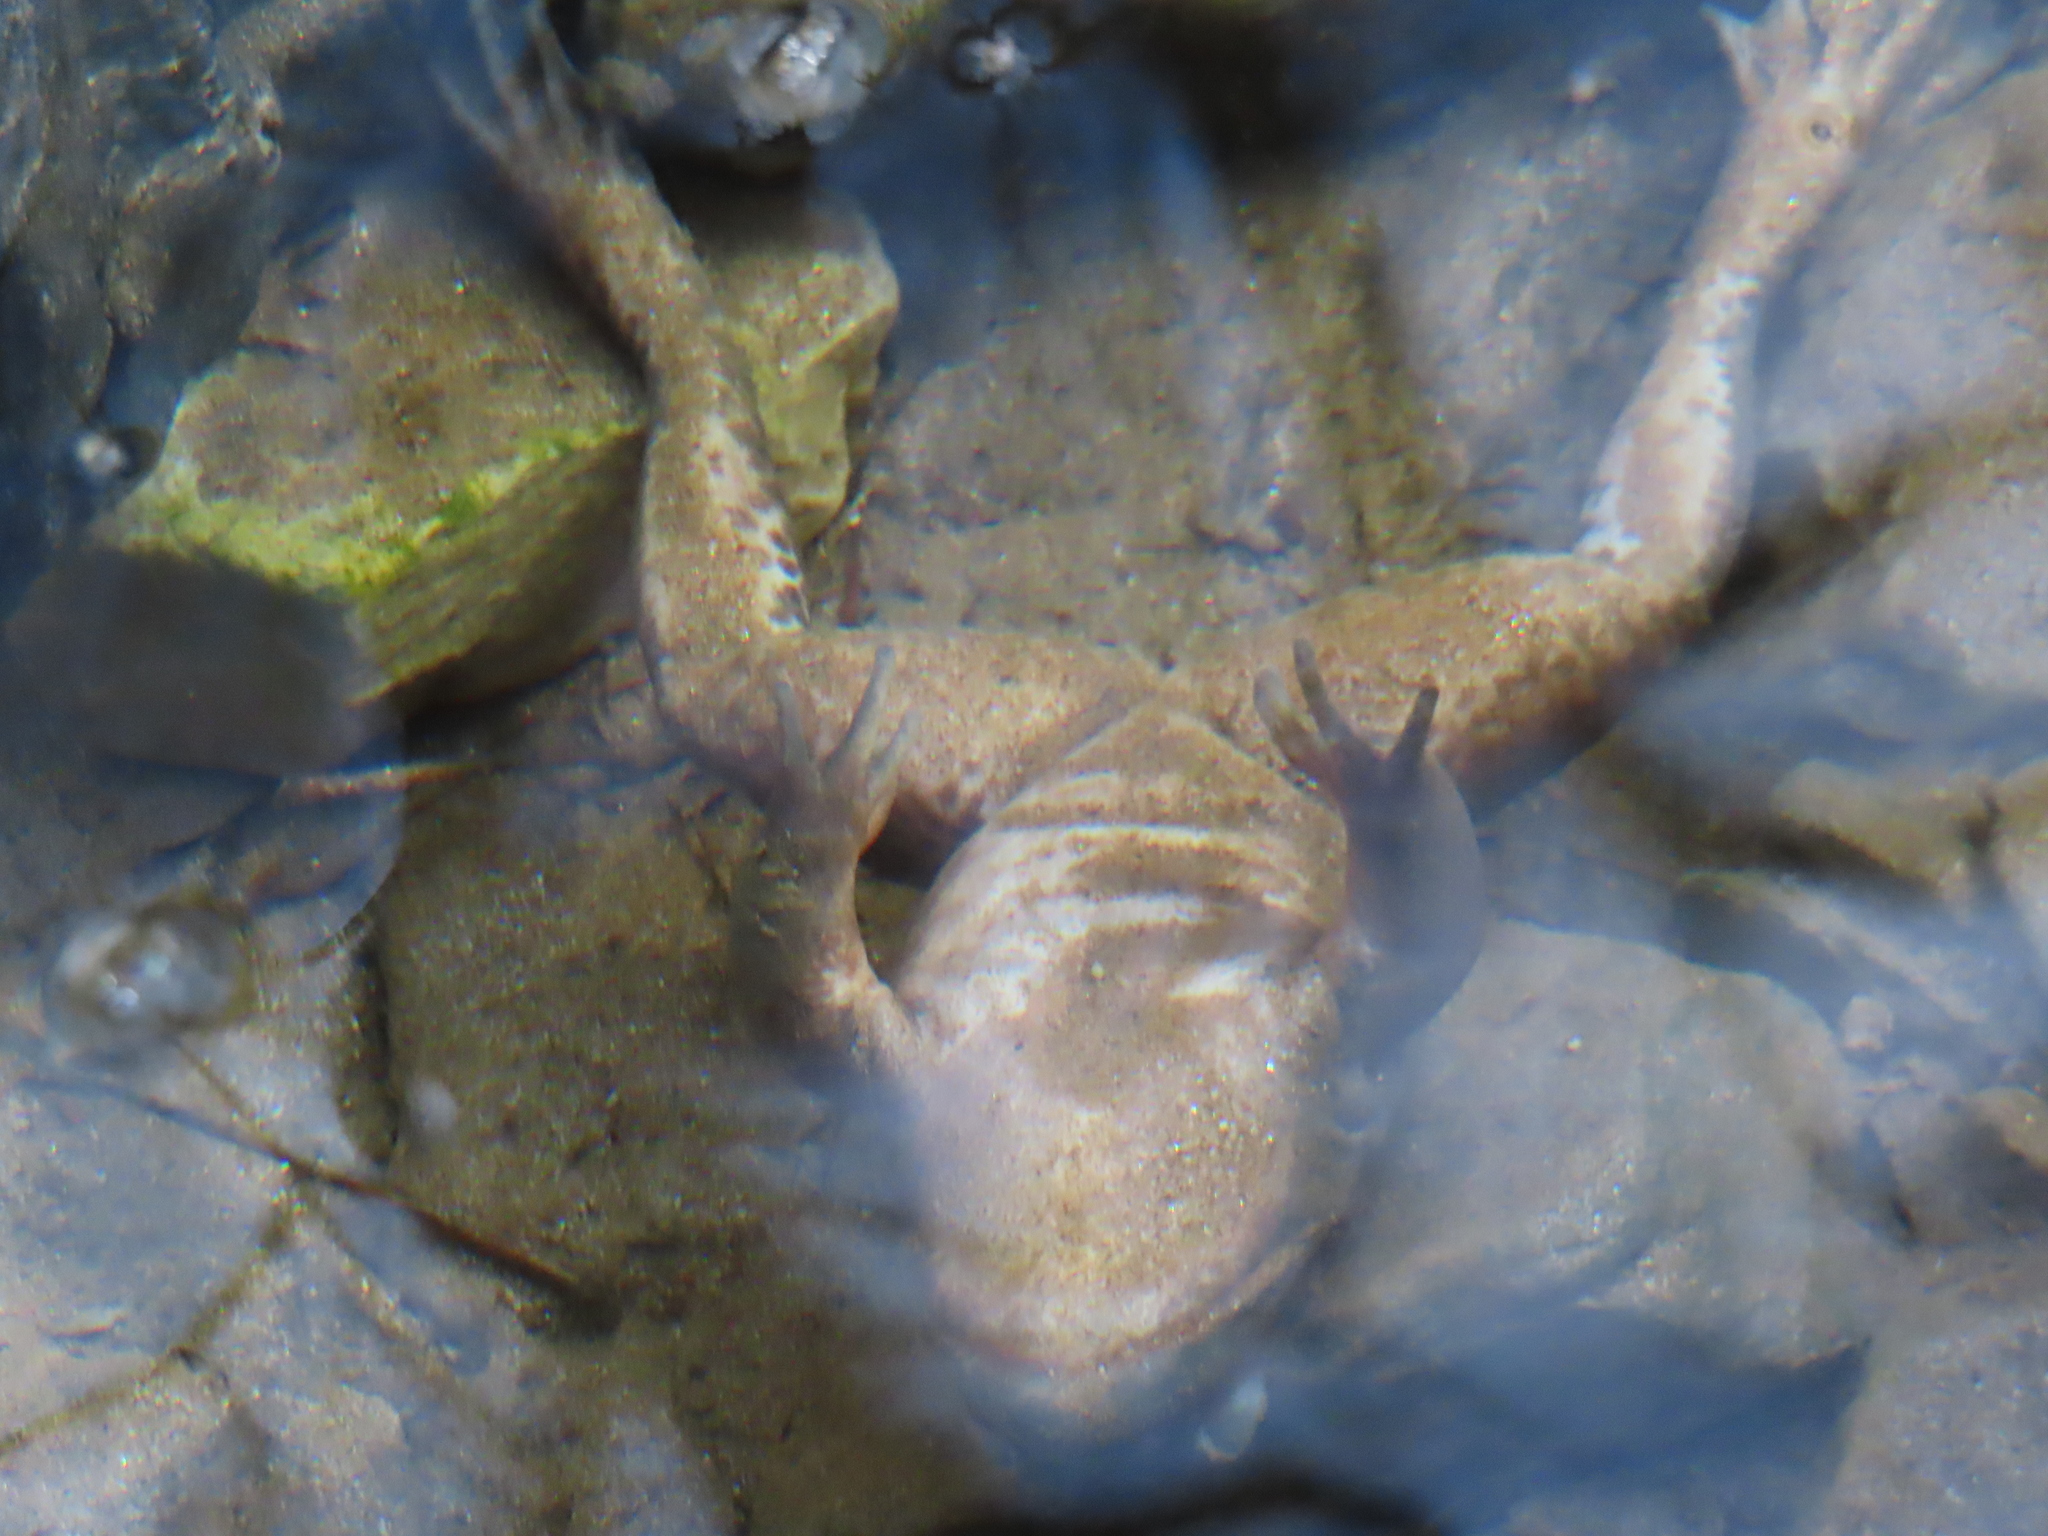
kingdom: Animalia
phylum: Chordata
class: Amphibia
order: Anura
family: Ranidae
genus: Lithobates
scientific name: Lithobates clamitans
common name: Green frog
